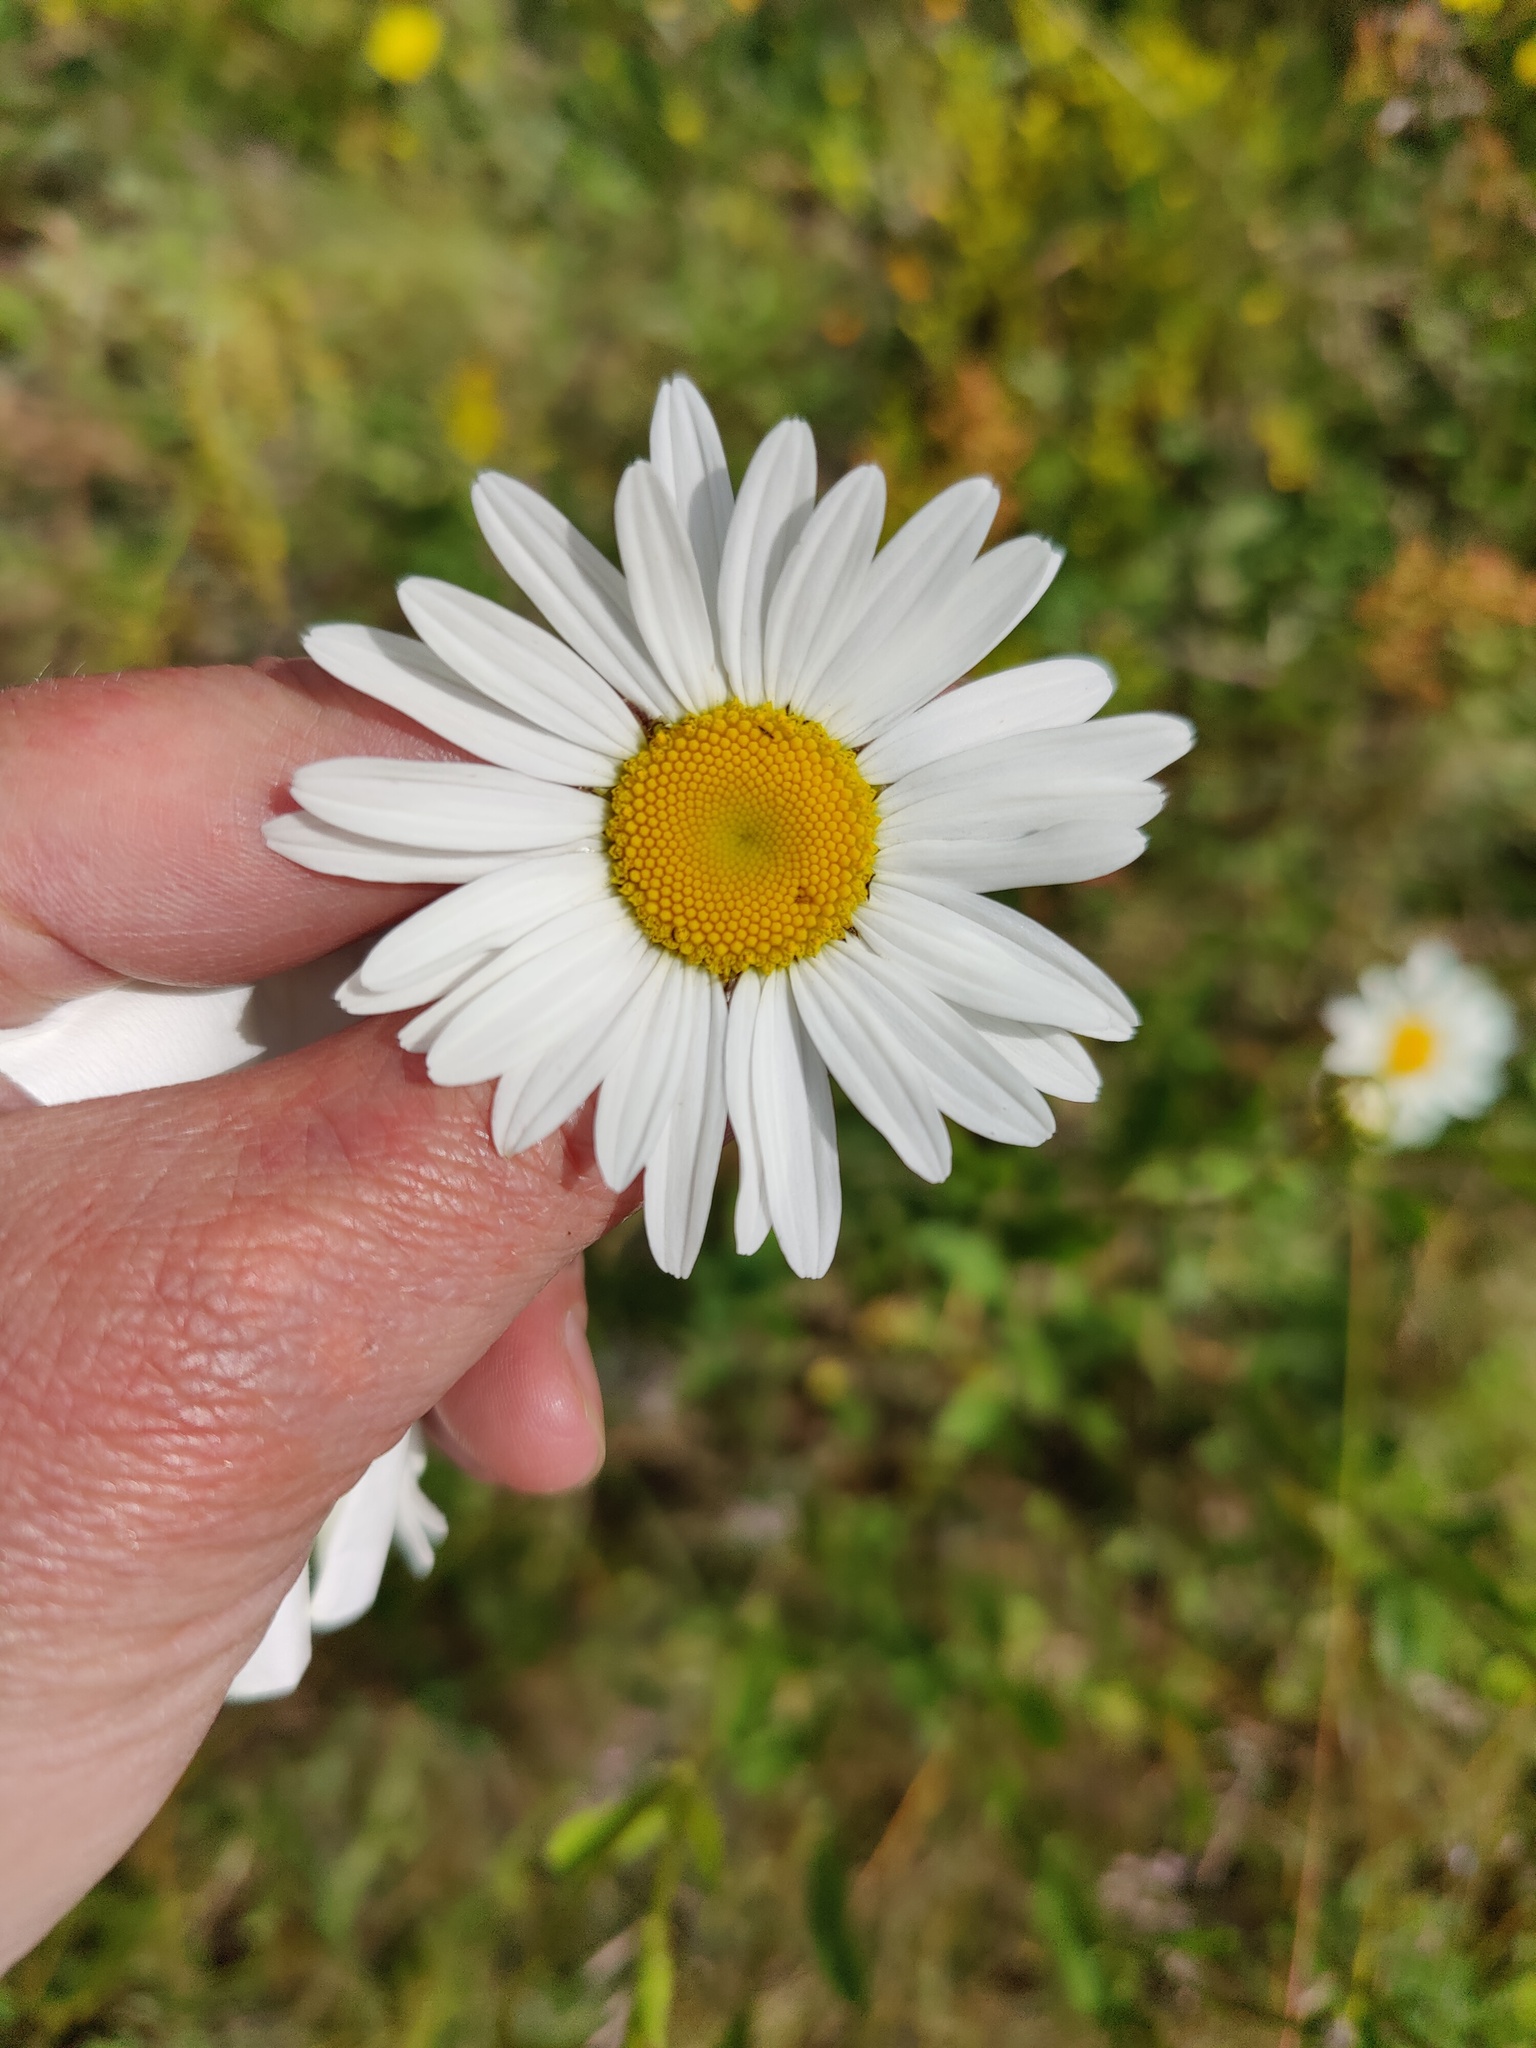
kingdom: Plantae
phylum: Tracheophyta
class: Magnoliopsida
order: Asterales
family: Asteraceae
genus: Leucanthemum
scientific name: Leucanthemum vulgare
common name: Oxeye daisy
